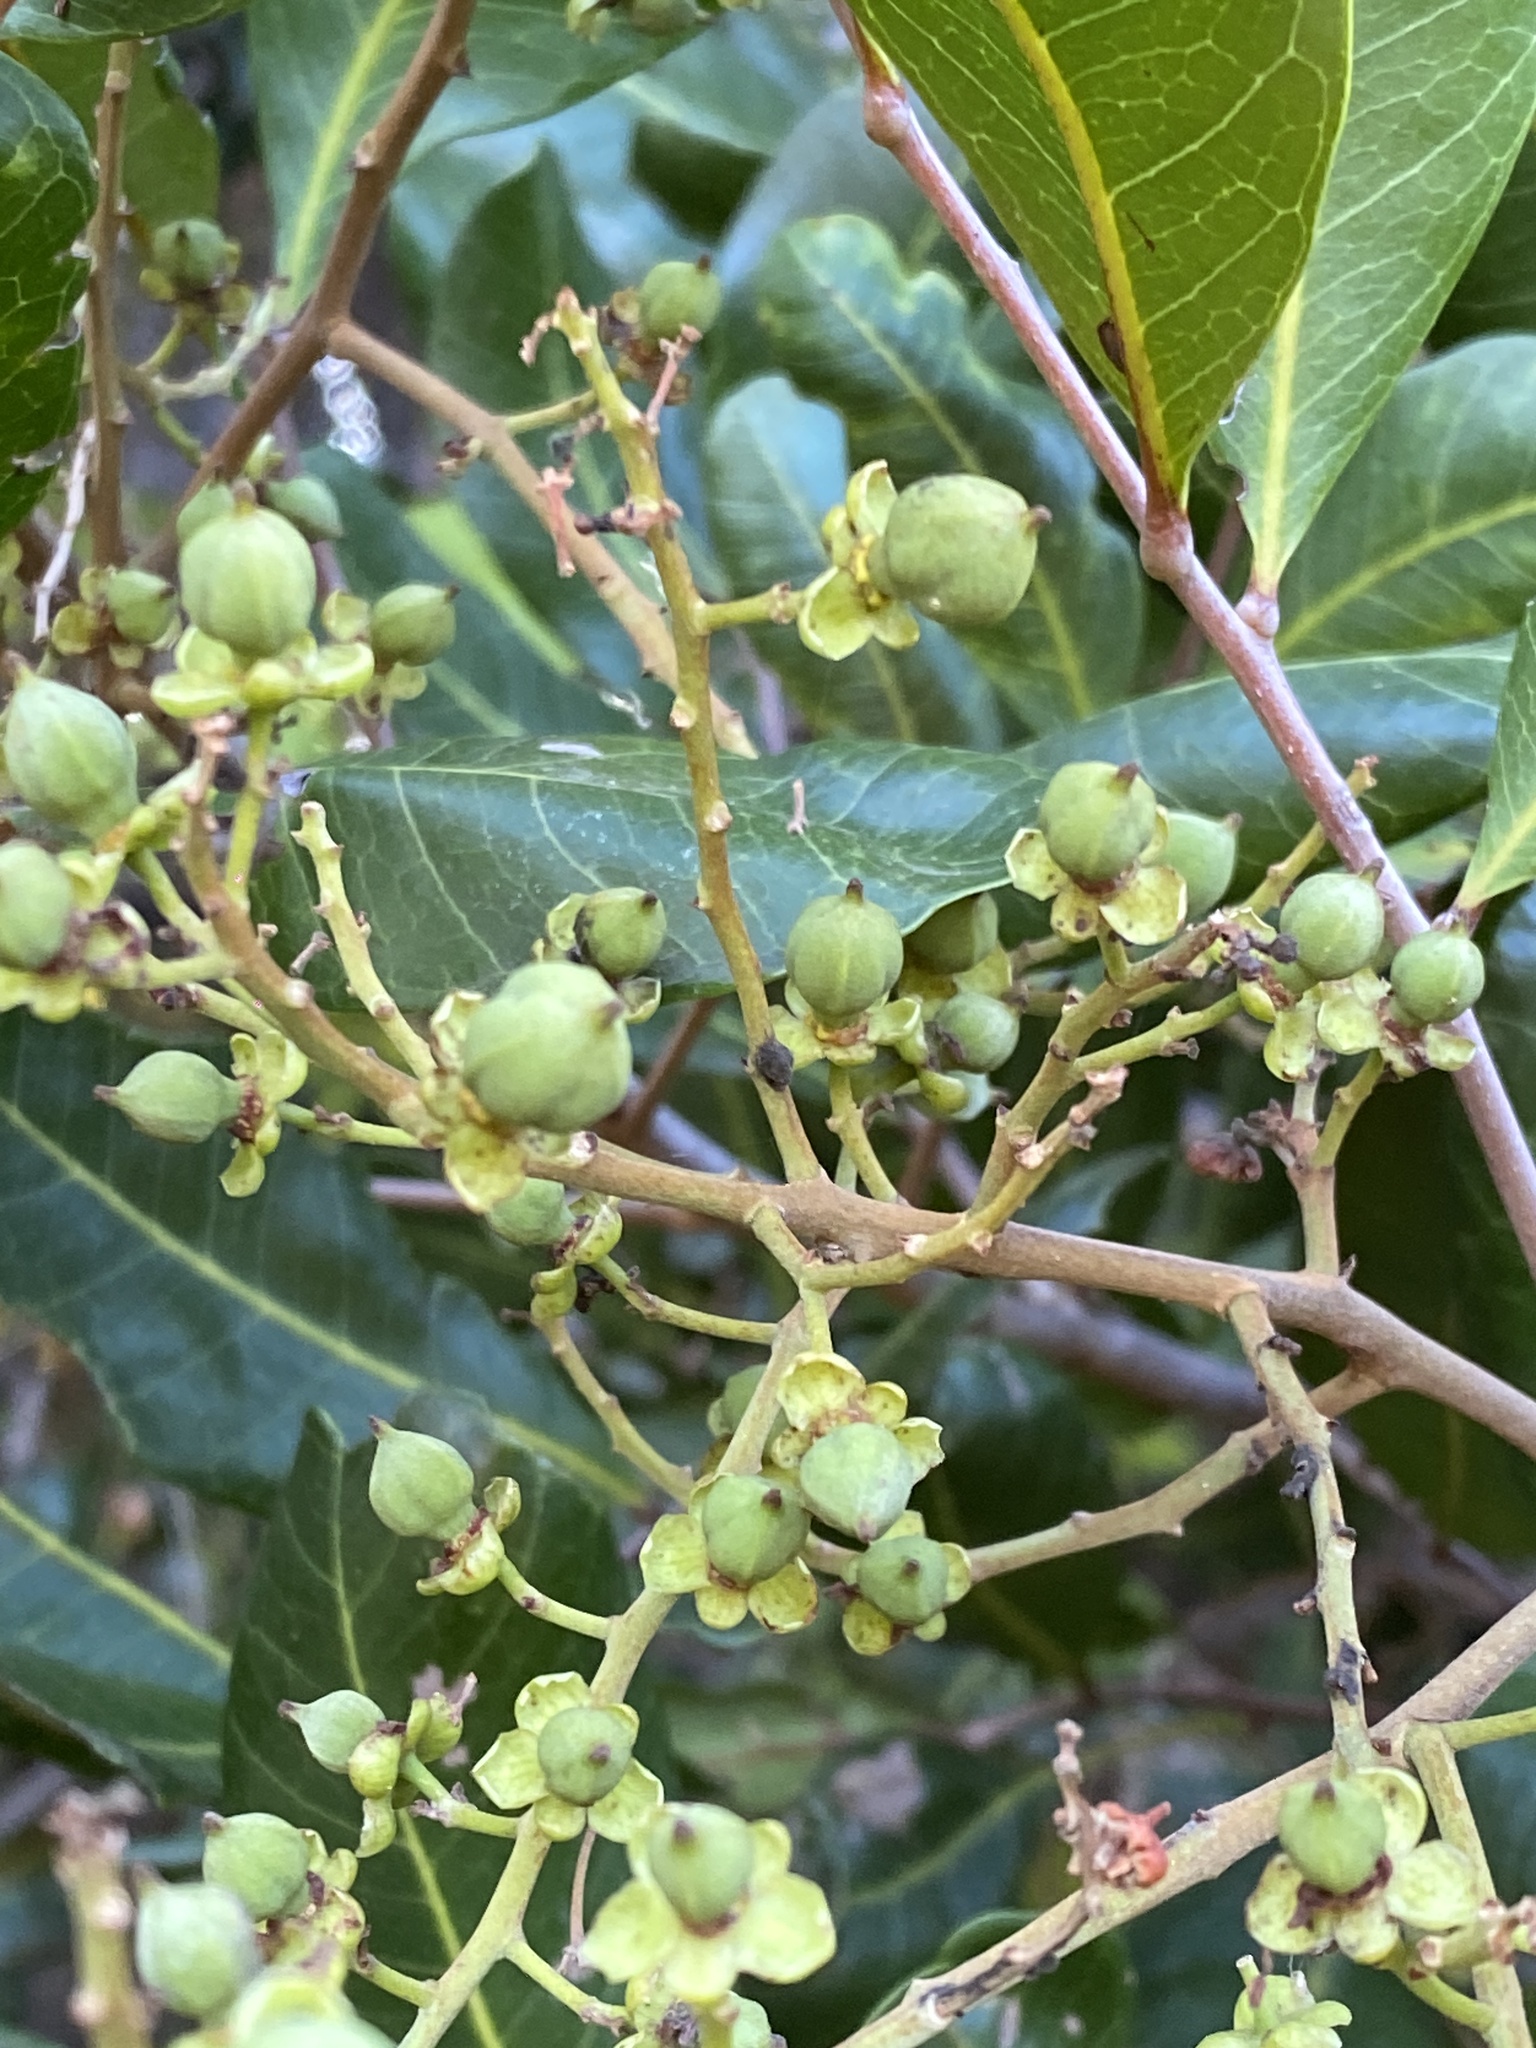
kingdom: Plantae
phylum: Tracheophyta
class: Magnoliopsida
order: Sapindales
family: Sapindaceae
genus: Cupaniopsis
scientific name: Cupaniopsis anacardioides
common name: Carrotwood
